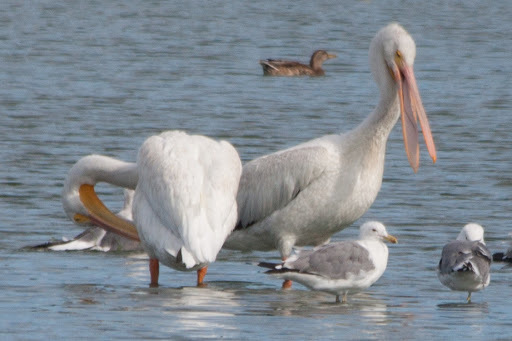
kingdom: Animalia
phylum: Chordata
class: Aves
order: Pelecaniformes
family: Pelecanidae
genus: Pelecanus
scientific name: Pelecanus erythrorhynchos
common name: American white pelican
